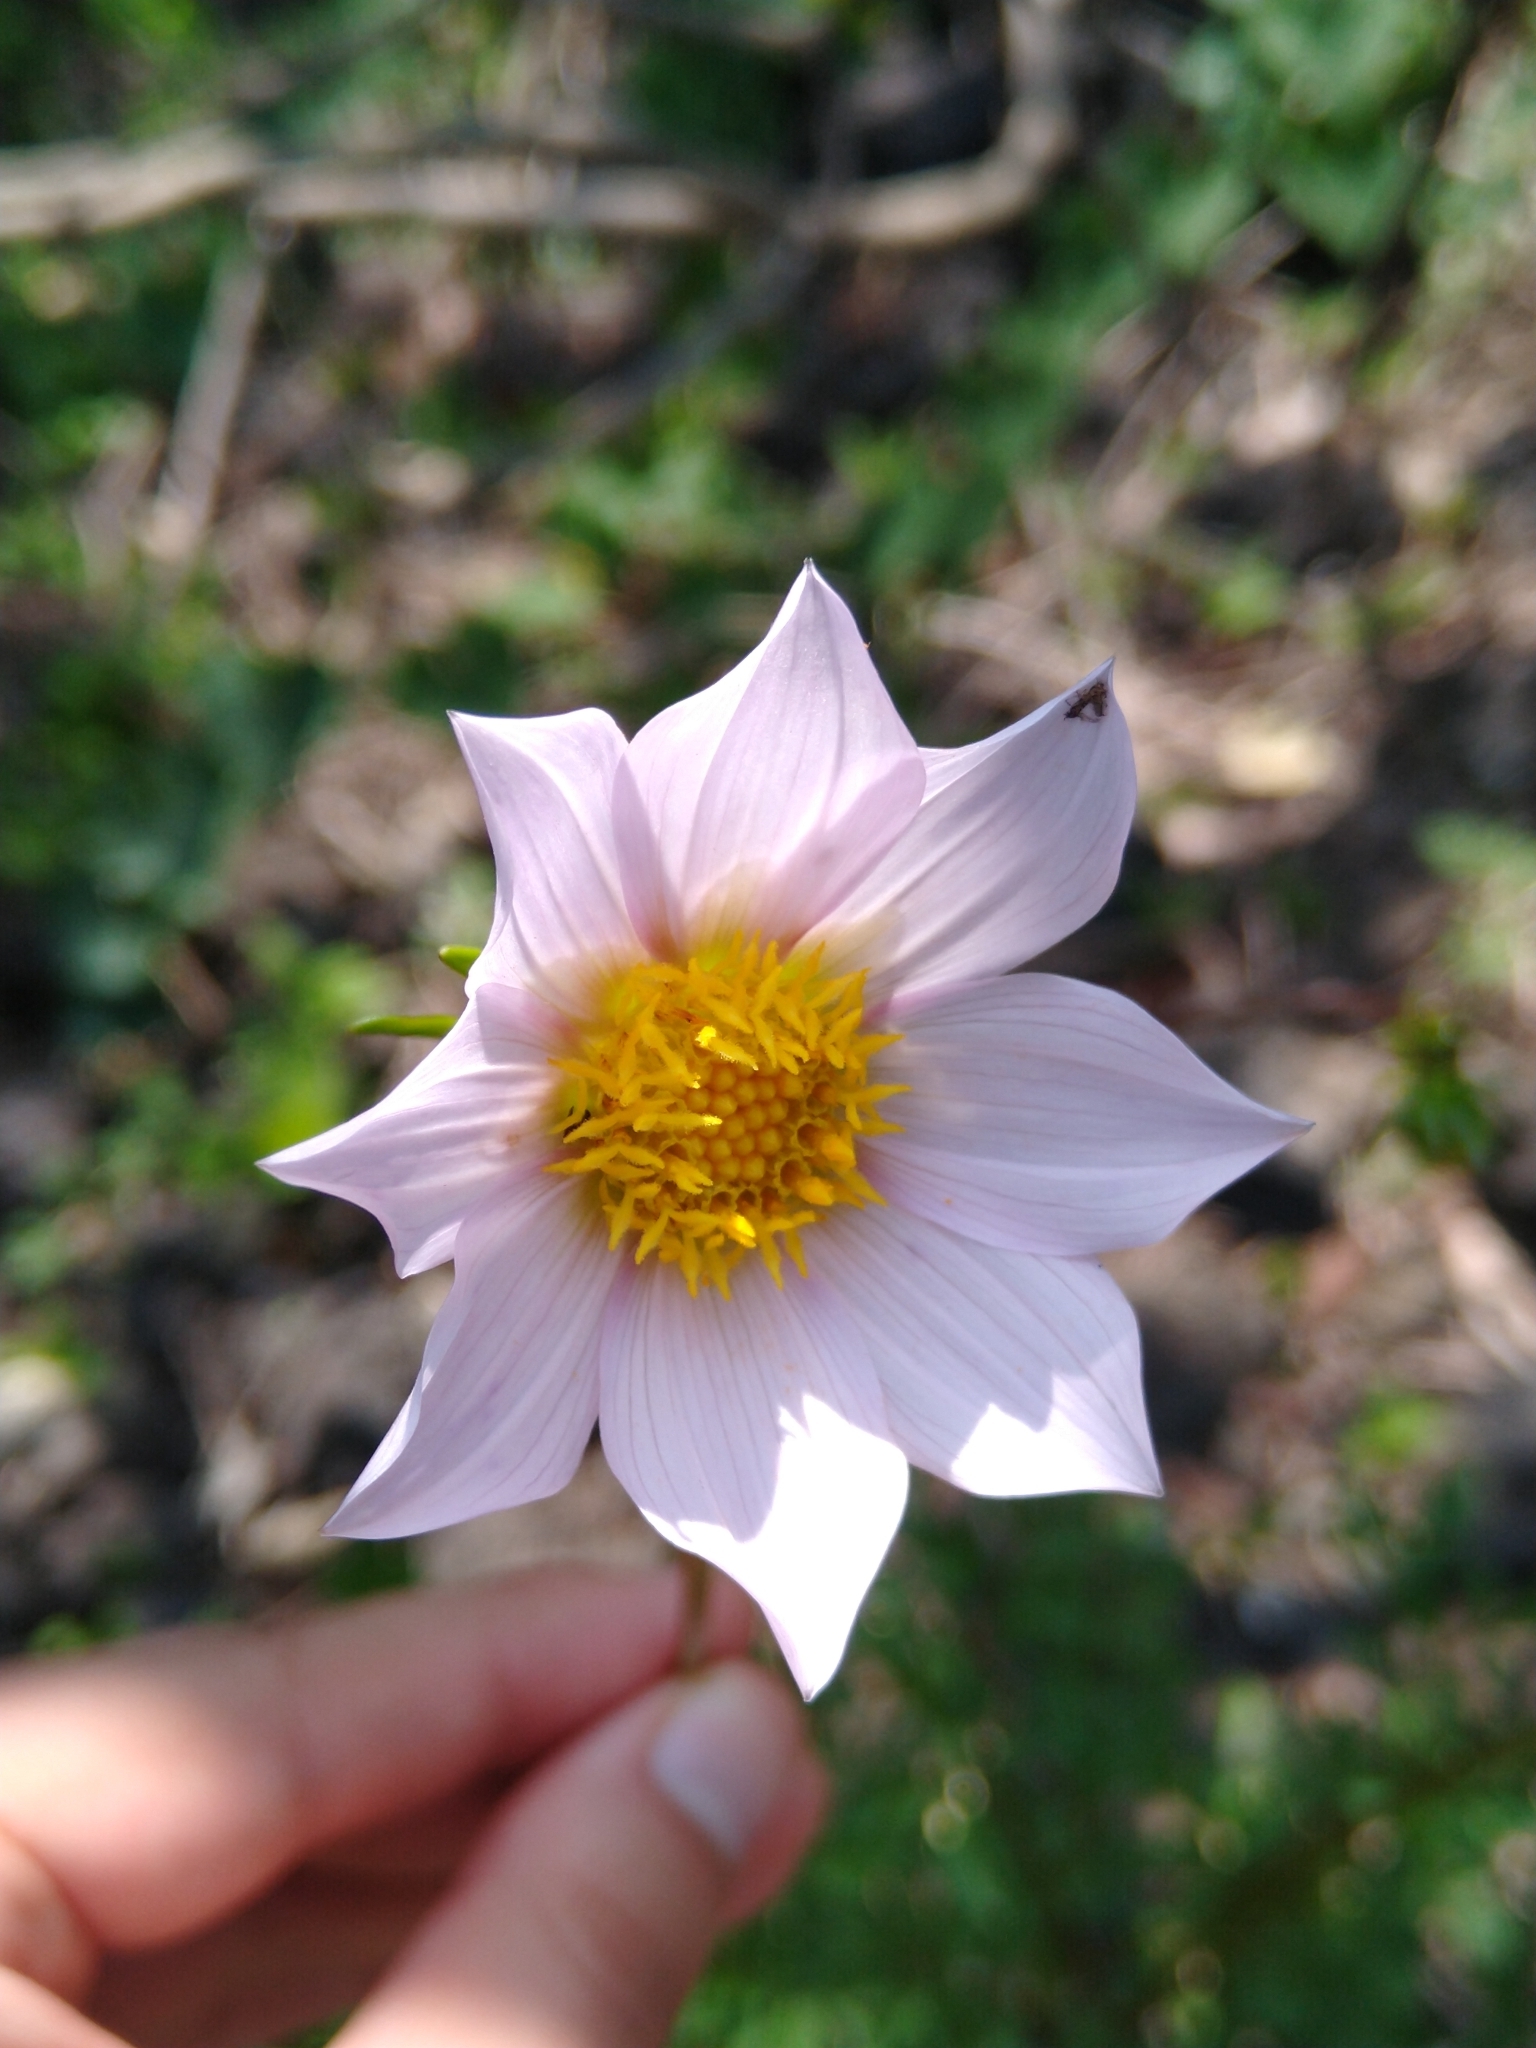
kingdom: Plantae
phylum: Tracheophyta
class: Magnoliopsida
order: Asterales
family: Asteraceae
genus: Dahlia
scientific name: Dahlia merckii
